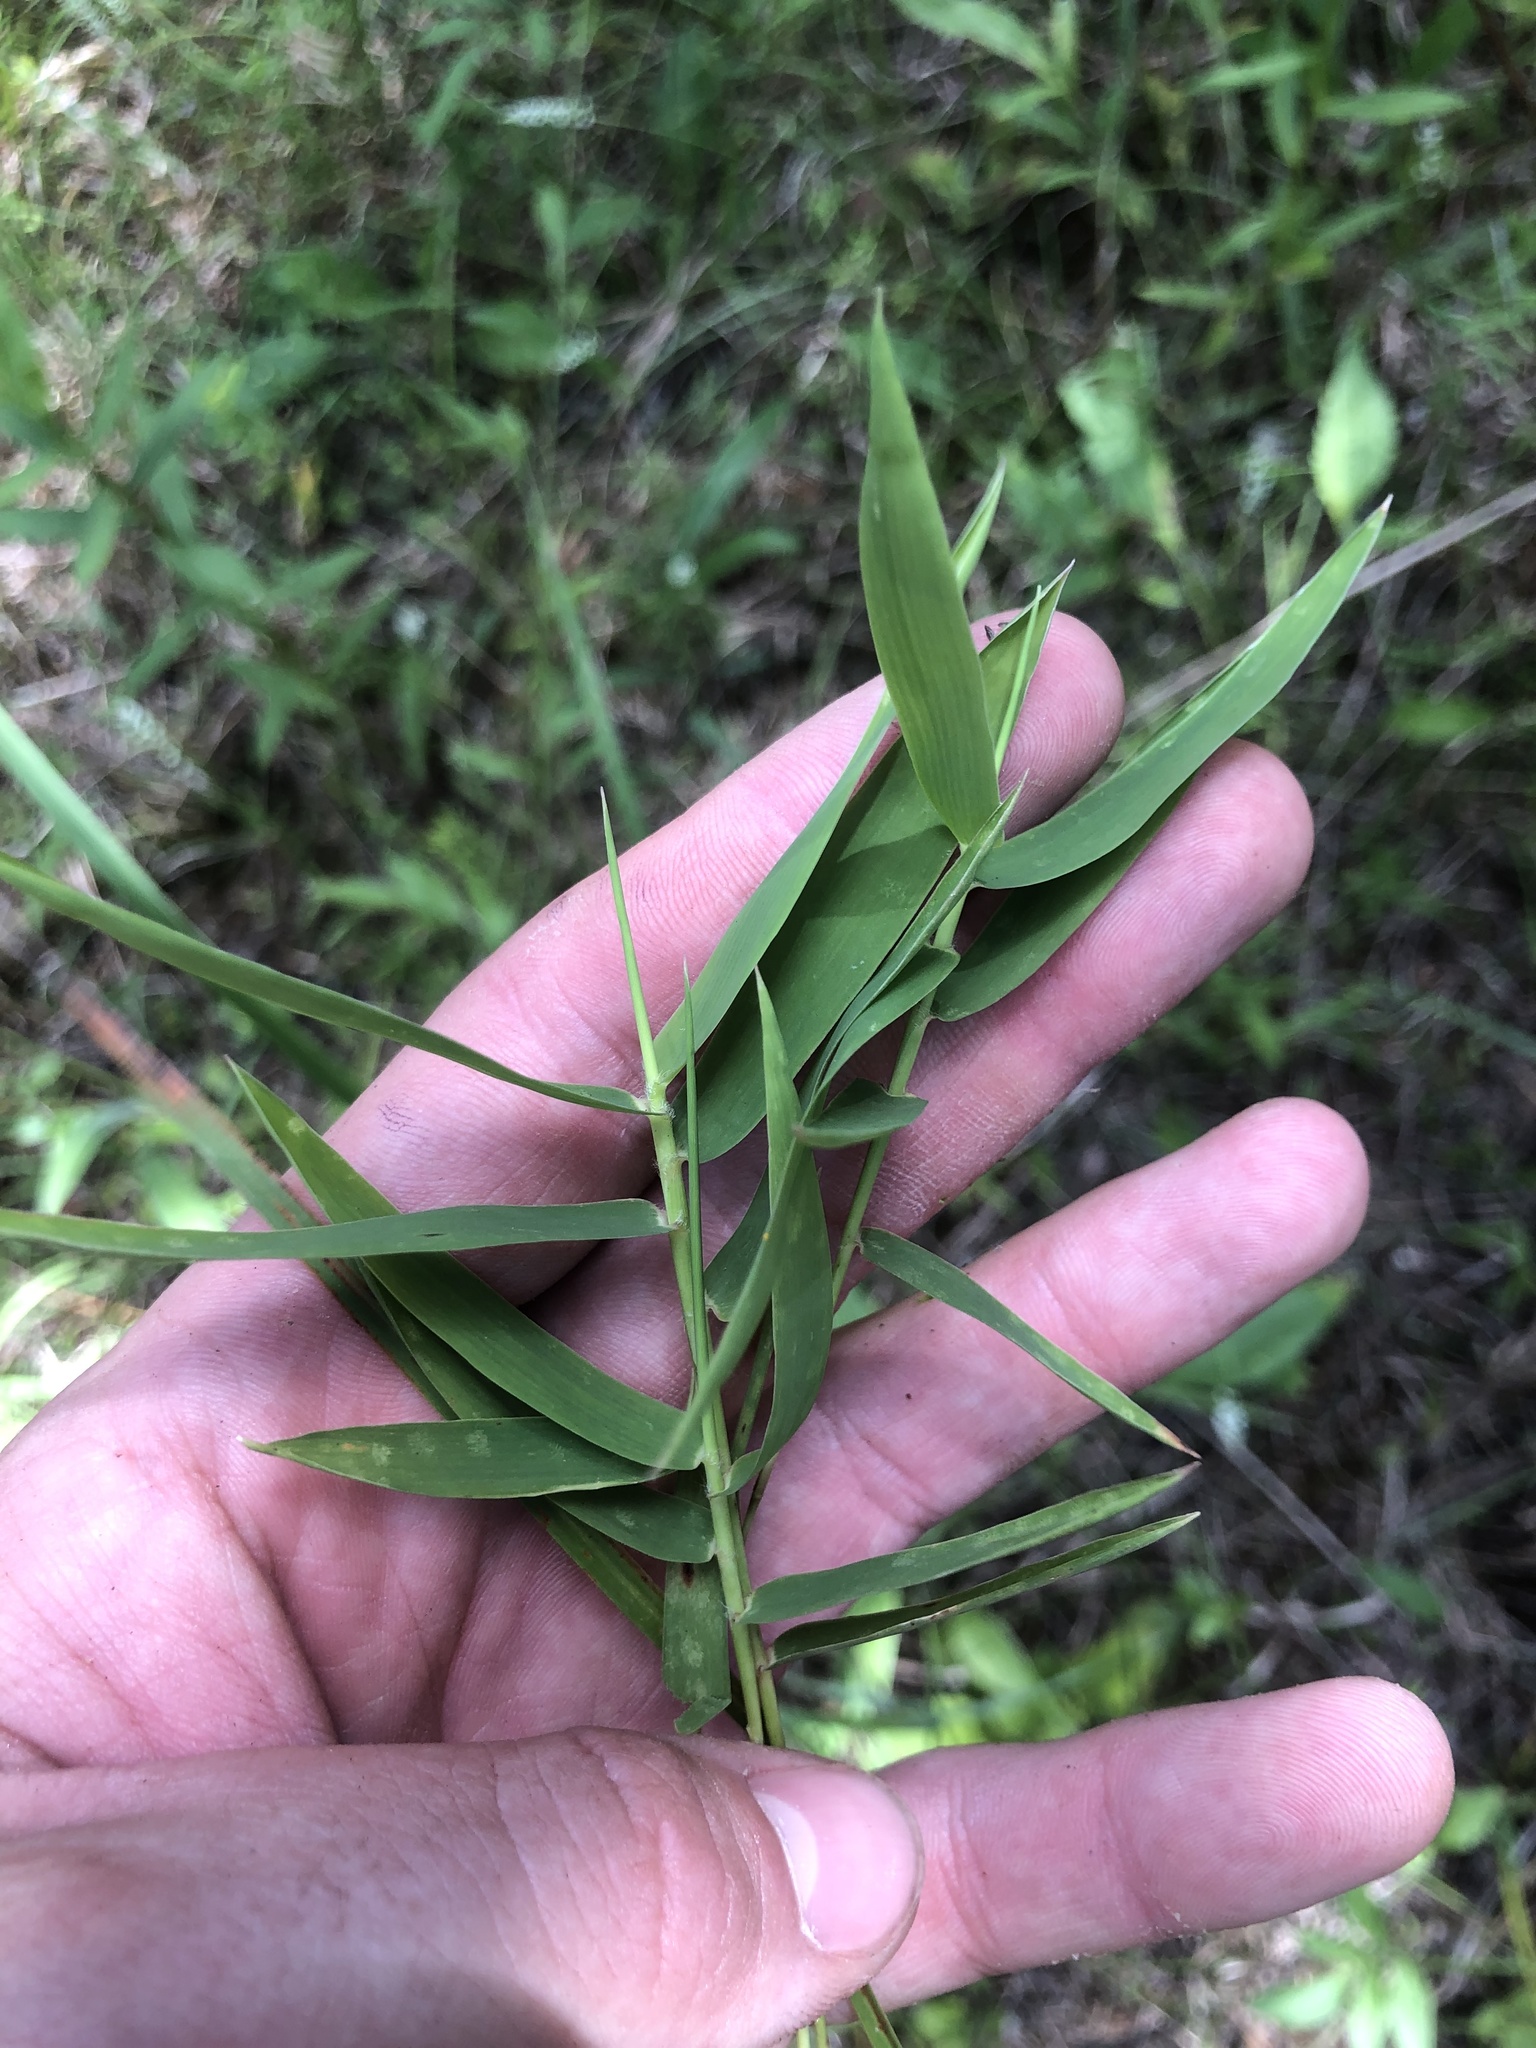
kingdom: Plantae
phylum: Tracheophyta
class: Liliopsida
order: Poales
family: Poaceae
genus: Gymnopogon
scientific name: Gymnopogon ambiguus
